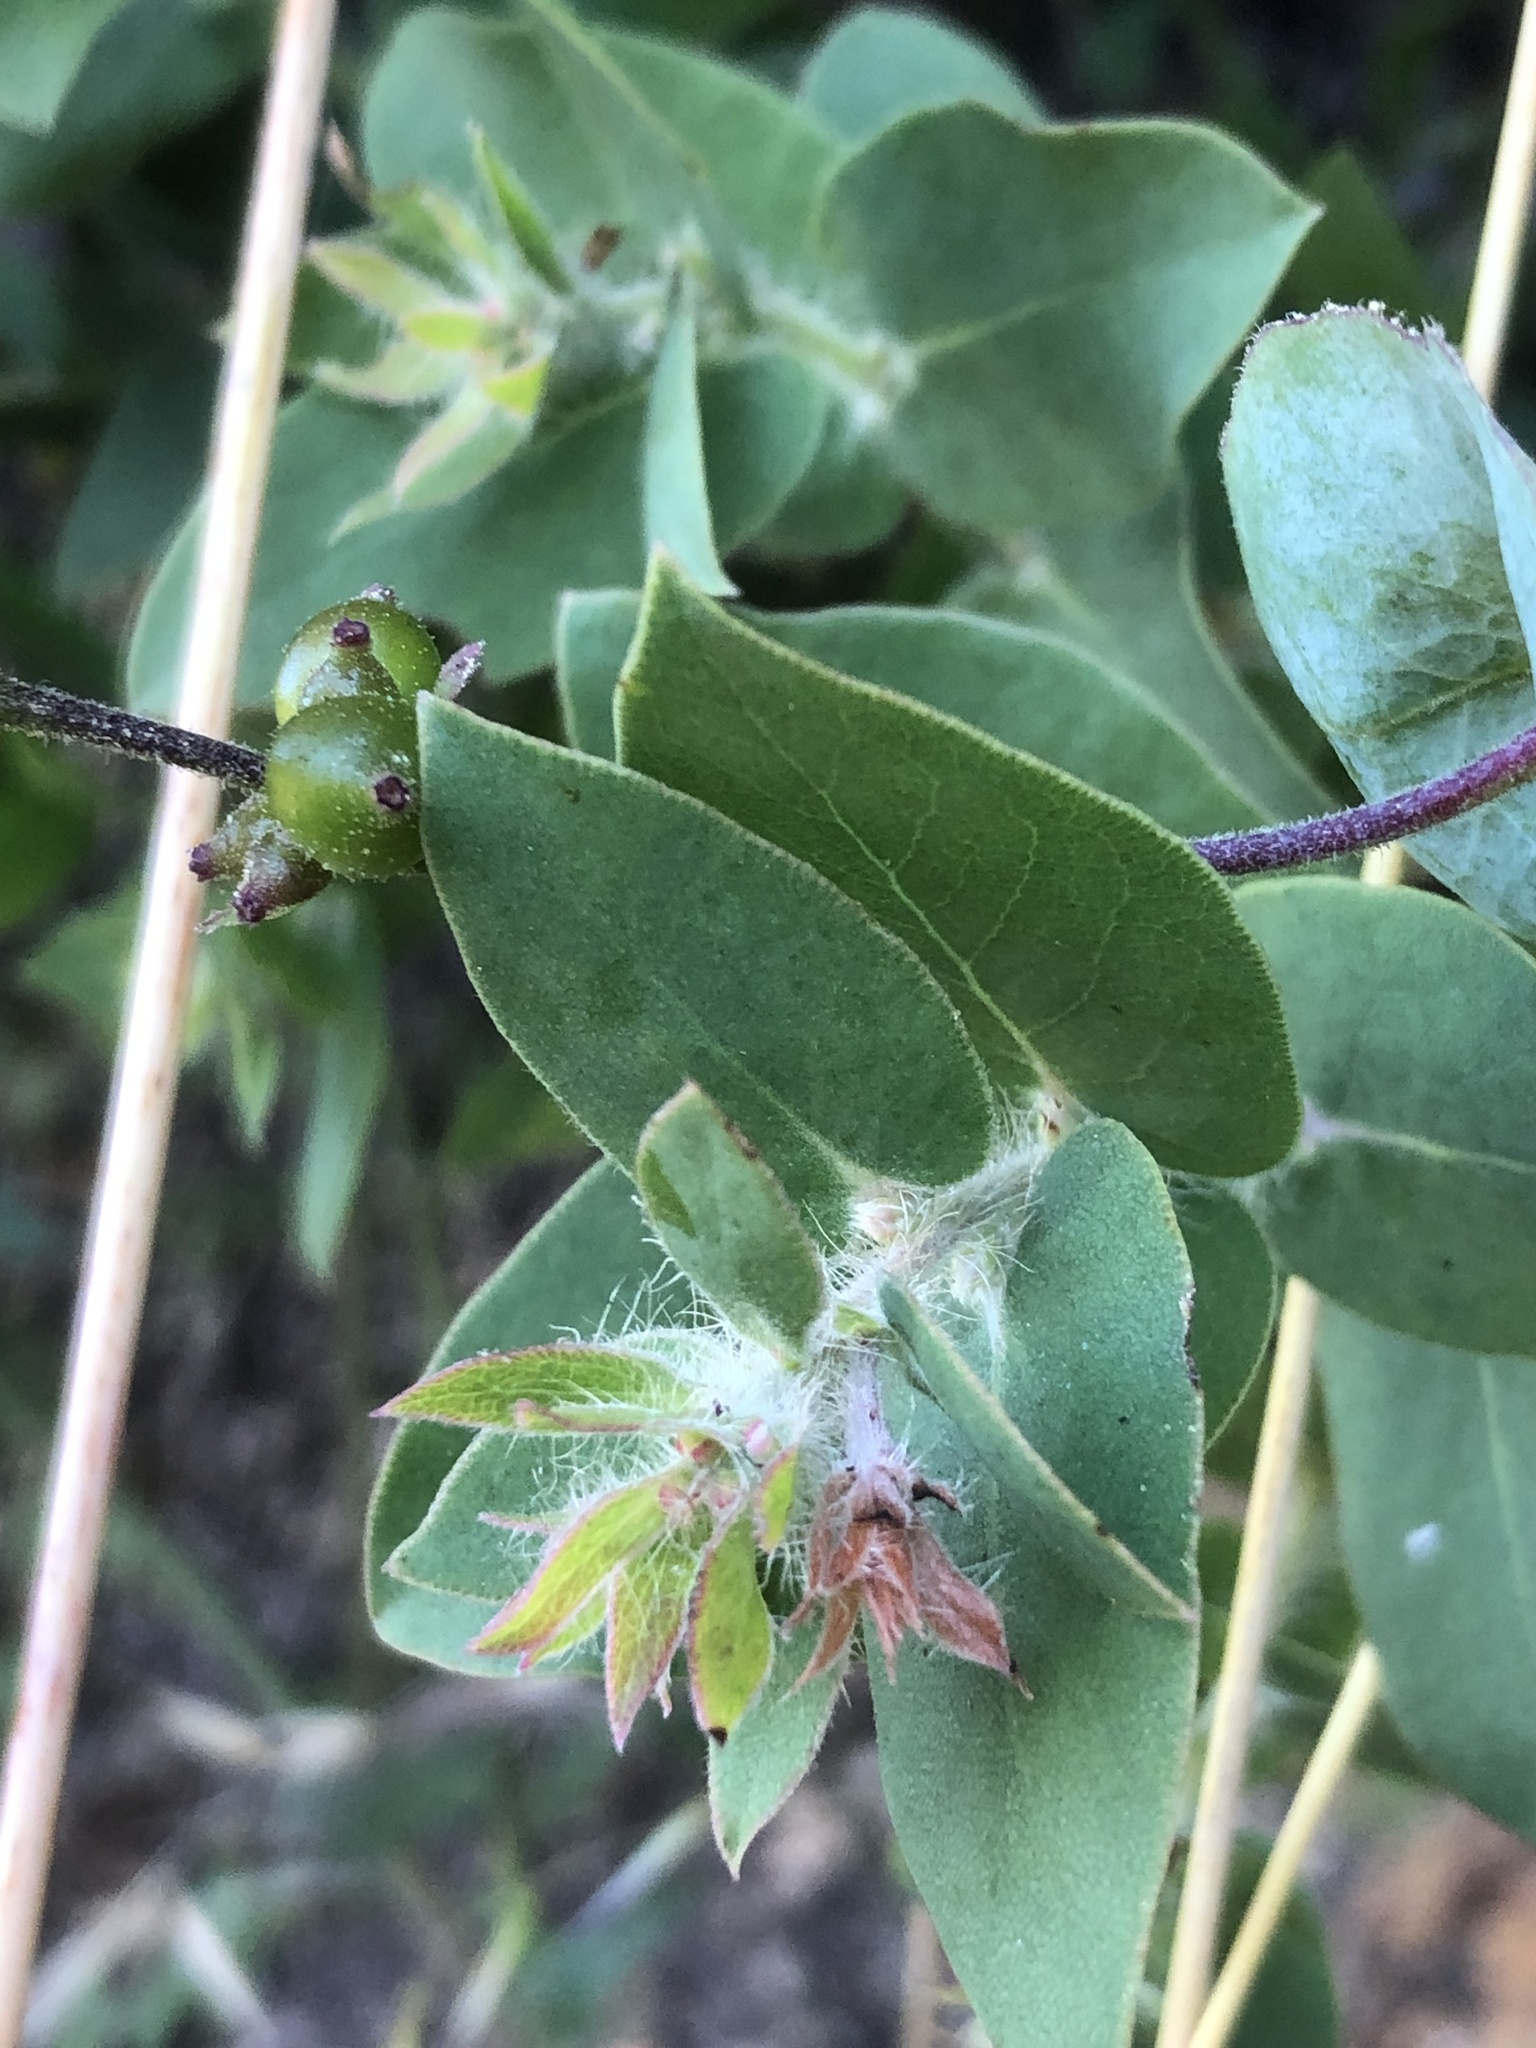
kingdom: Plantae
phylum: Tracheophyta
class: Magnoliopsida
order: Ericales
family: Ericaceae
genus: Arctostaphylos
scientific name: Arctostaphylos pechoensis
